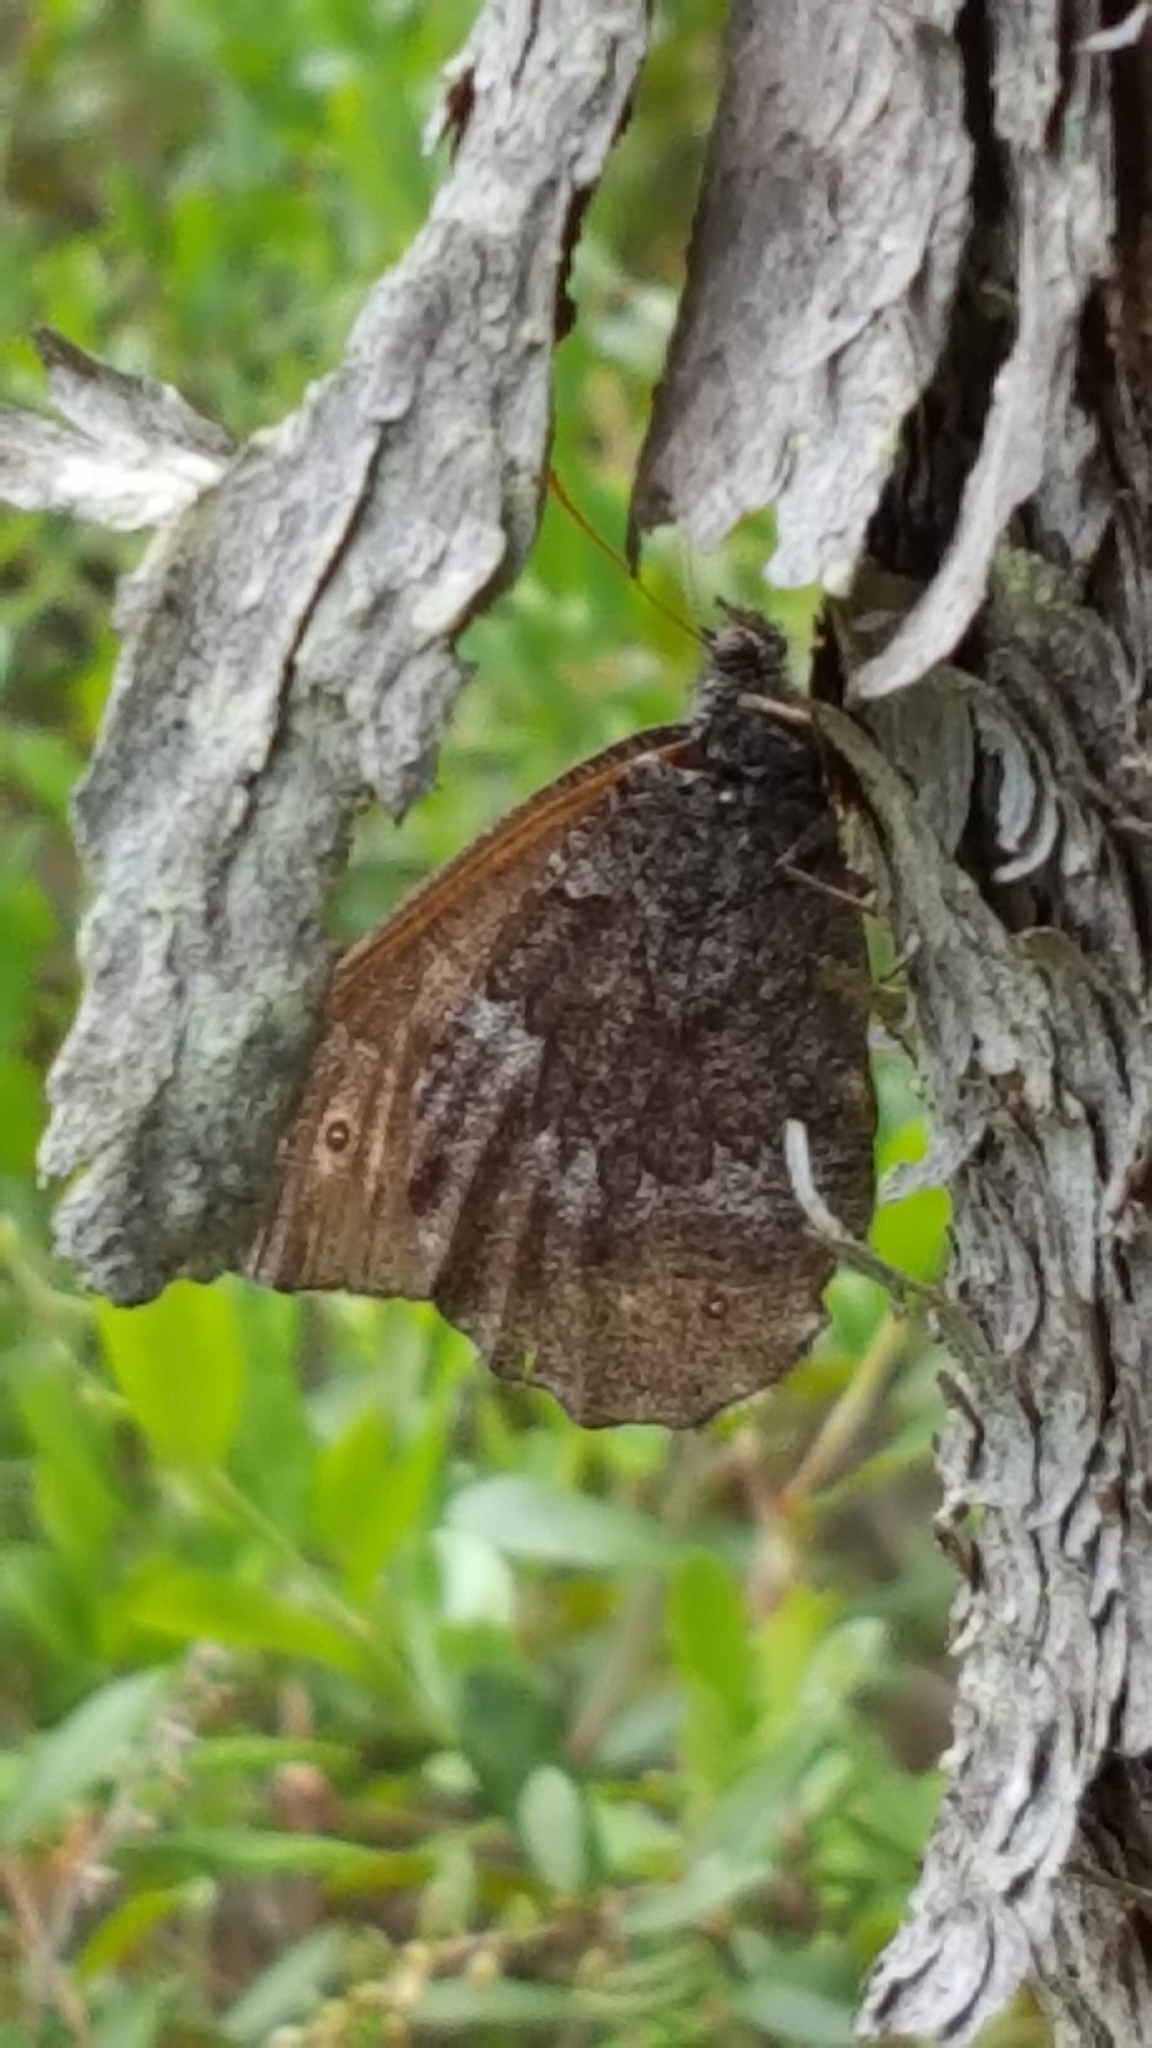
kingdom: Animalia
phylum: Arthropoda
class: Insecta
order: Lepidoptera
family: Nymphalidae
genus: Oeneis
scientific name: Oeneis jutta
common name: Baltic grayling
